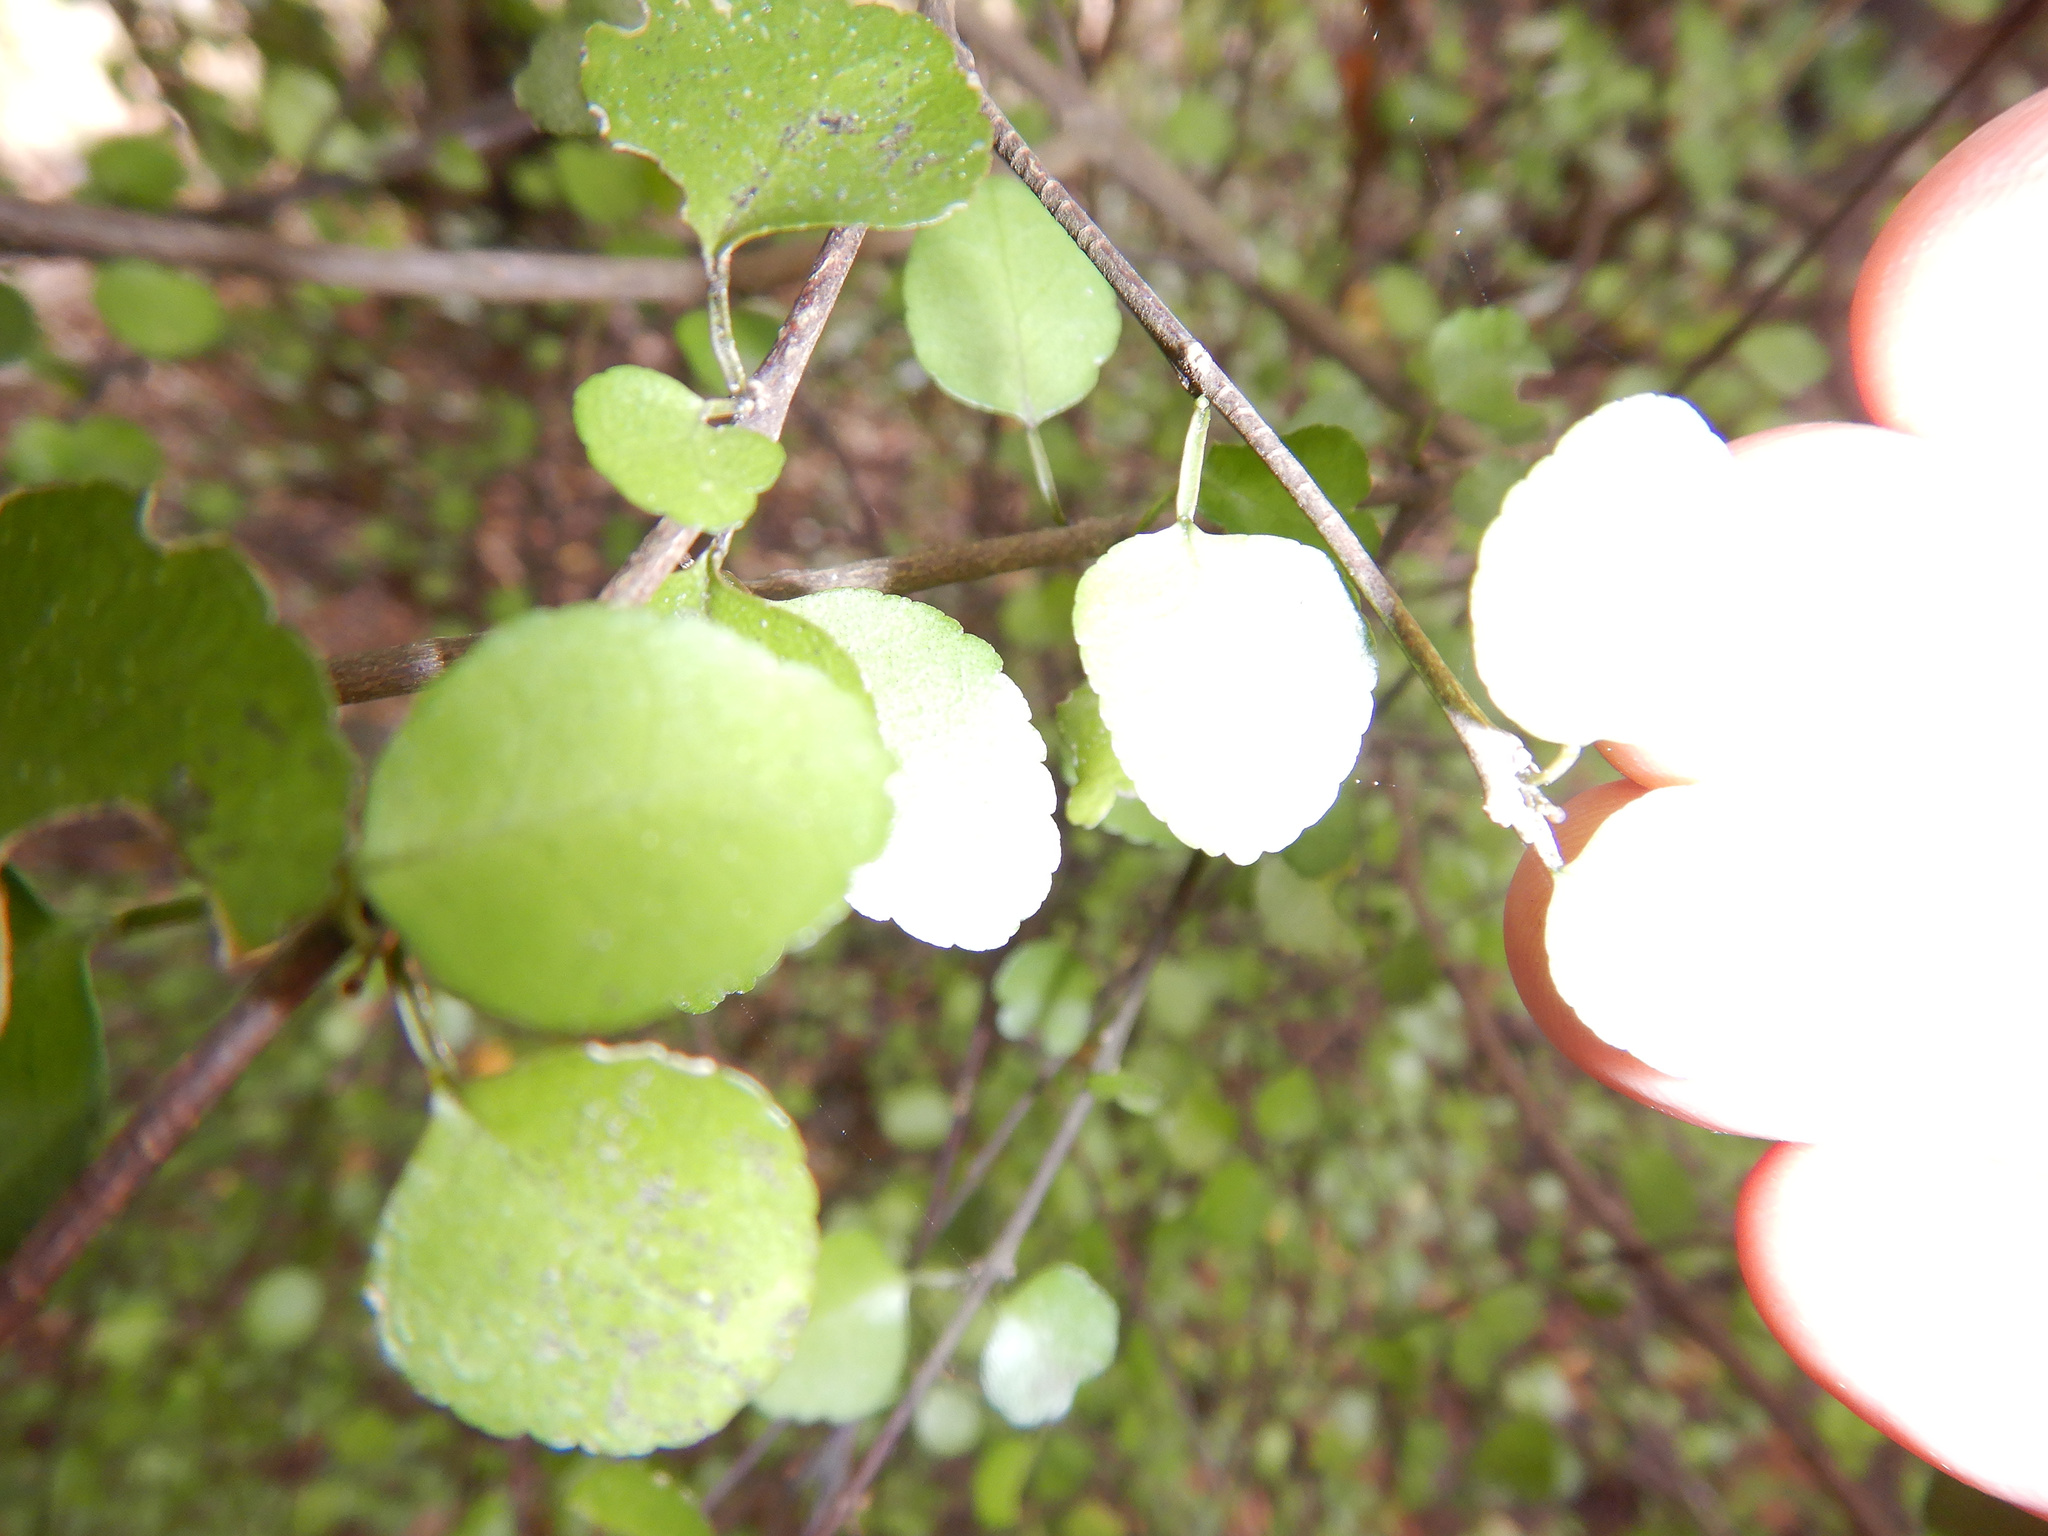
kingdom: Plantae
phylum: Tracheophyta
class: Magnoliopsida
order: Sapindales
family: Rutaceae
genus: Melicope
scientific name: Melicope simplex
